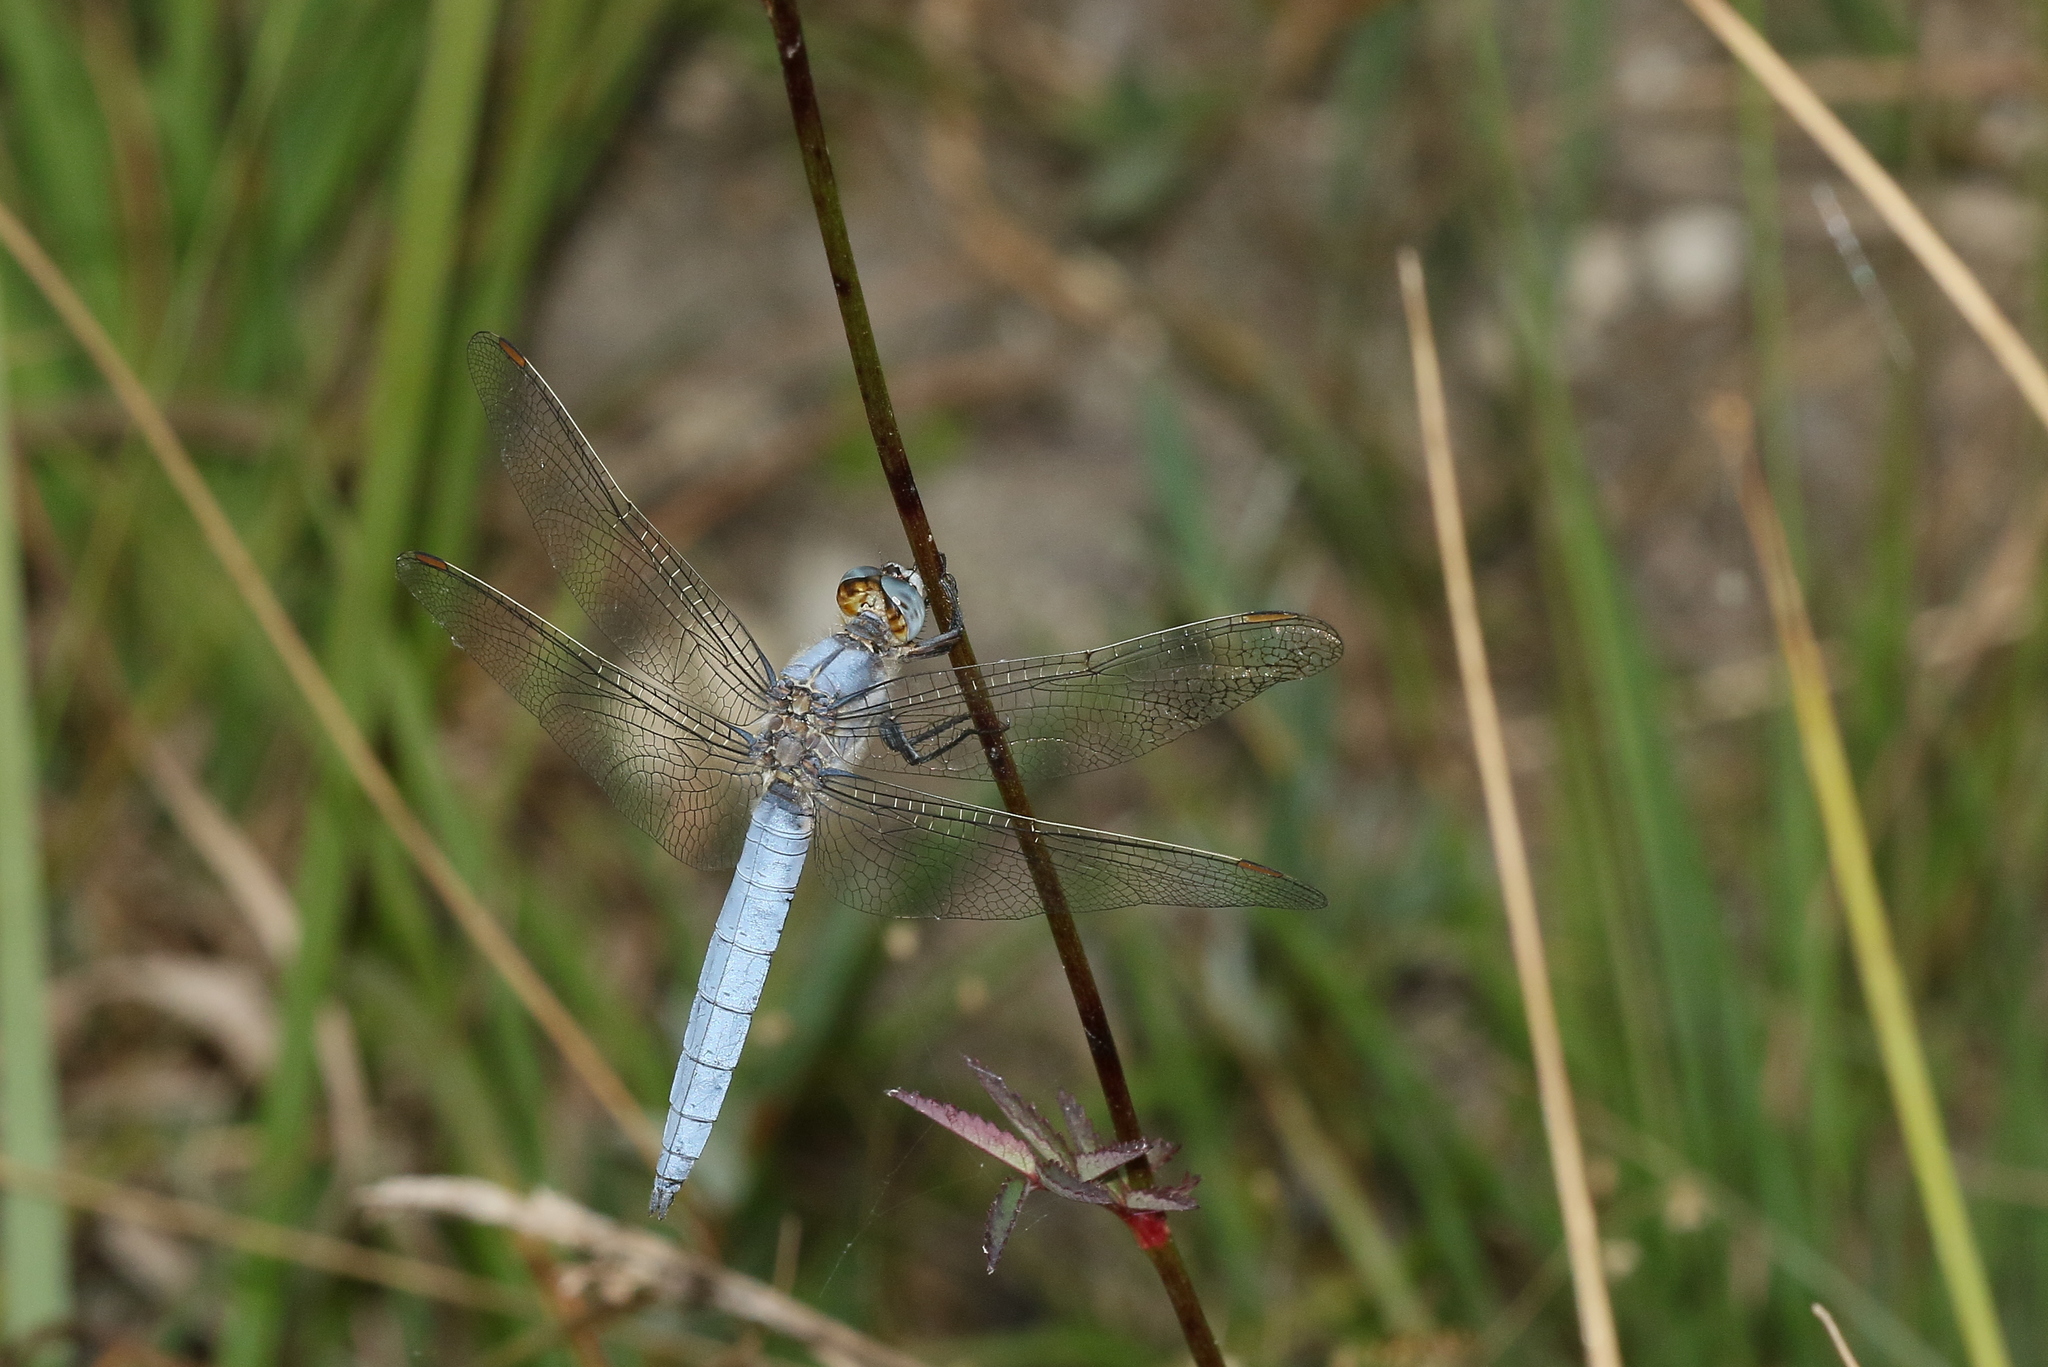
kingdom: Animalia
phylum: Arthropoda
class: Insecta
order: Odonata
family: Libellulidae
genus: Orthetrum
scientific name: Orthetrum brunneum
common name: Southern skimmer
